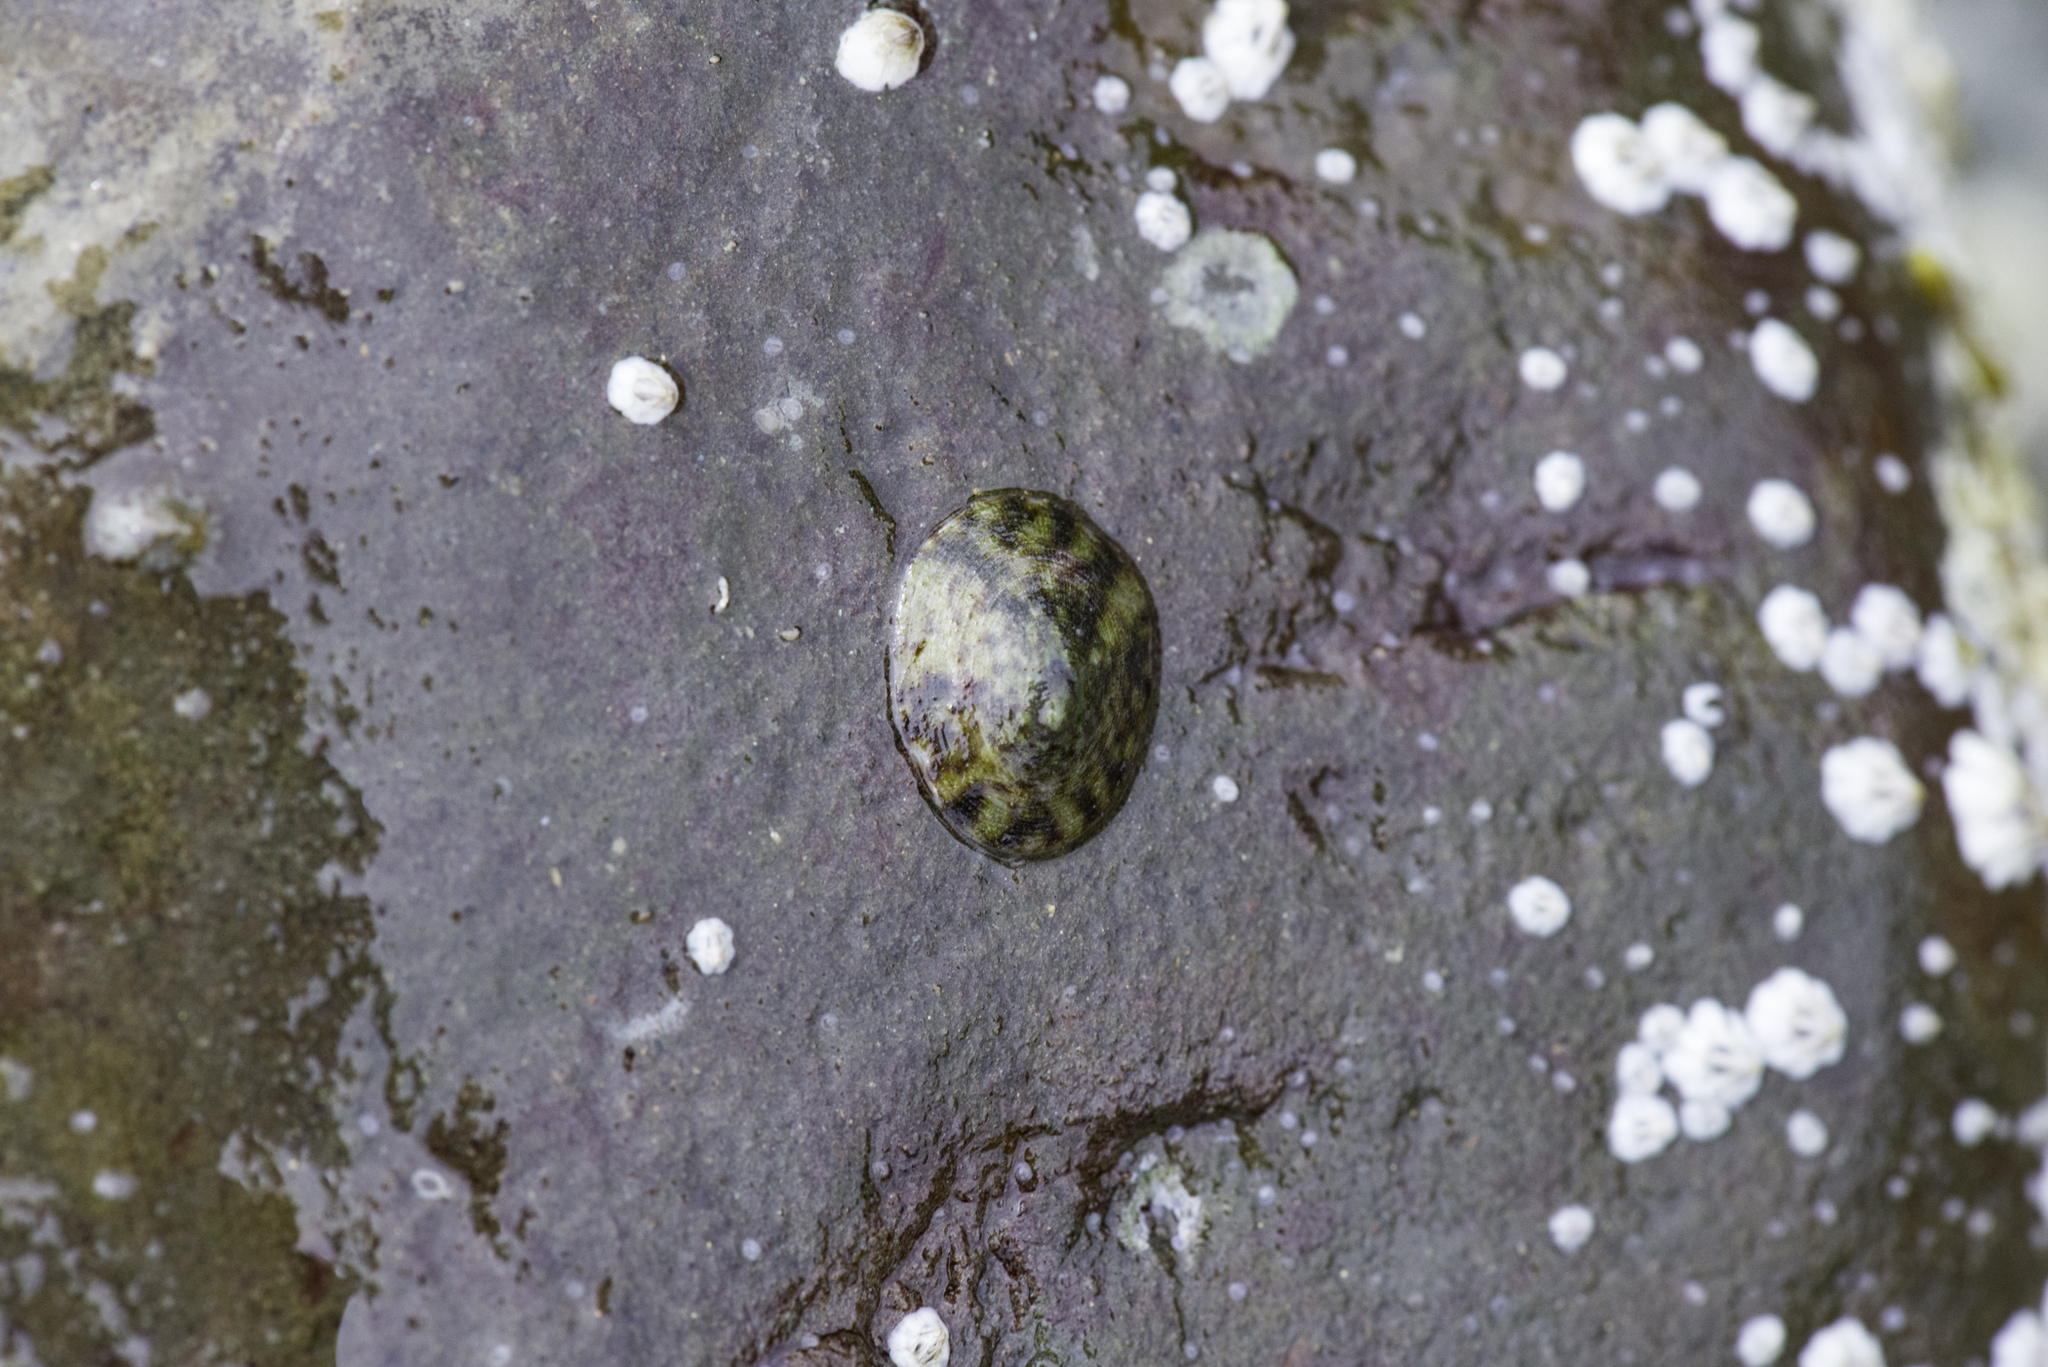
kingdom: Animalia
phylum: Mollusca
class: Gastropoda
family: Lottiidae
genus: Testudinalia
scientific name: Testudinalia testudinalis
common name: Common tortoiseshell limpet
